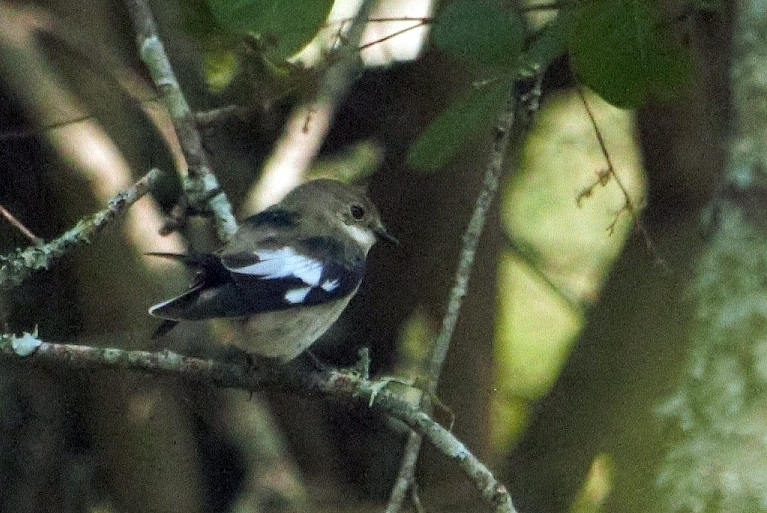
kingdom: Animalia
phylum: Chordata
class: Aves
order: Passeriformes
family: Muscicapidae
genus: Ficedula
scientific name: Ficedula albicollis
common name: Collared flycatcher
